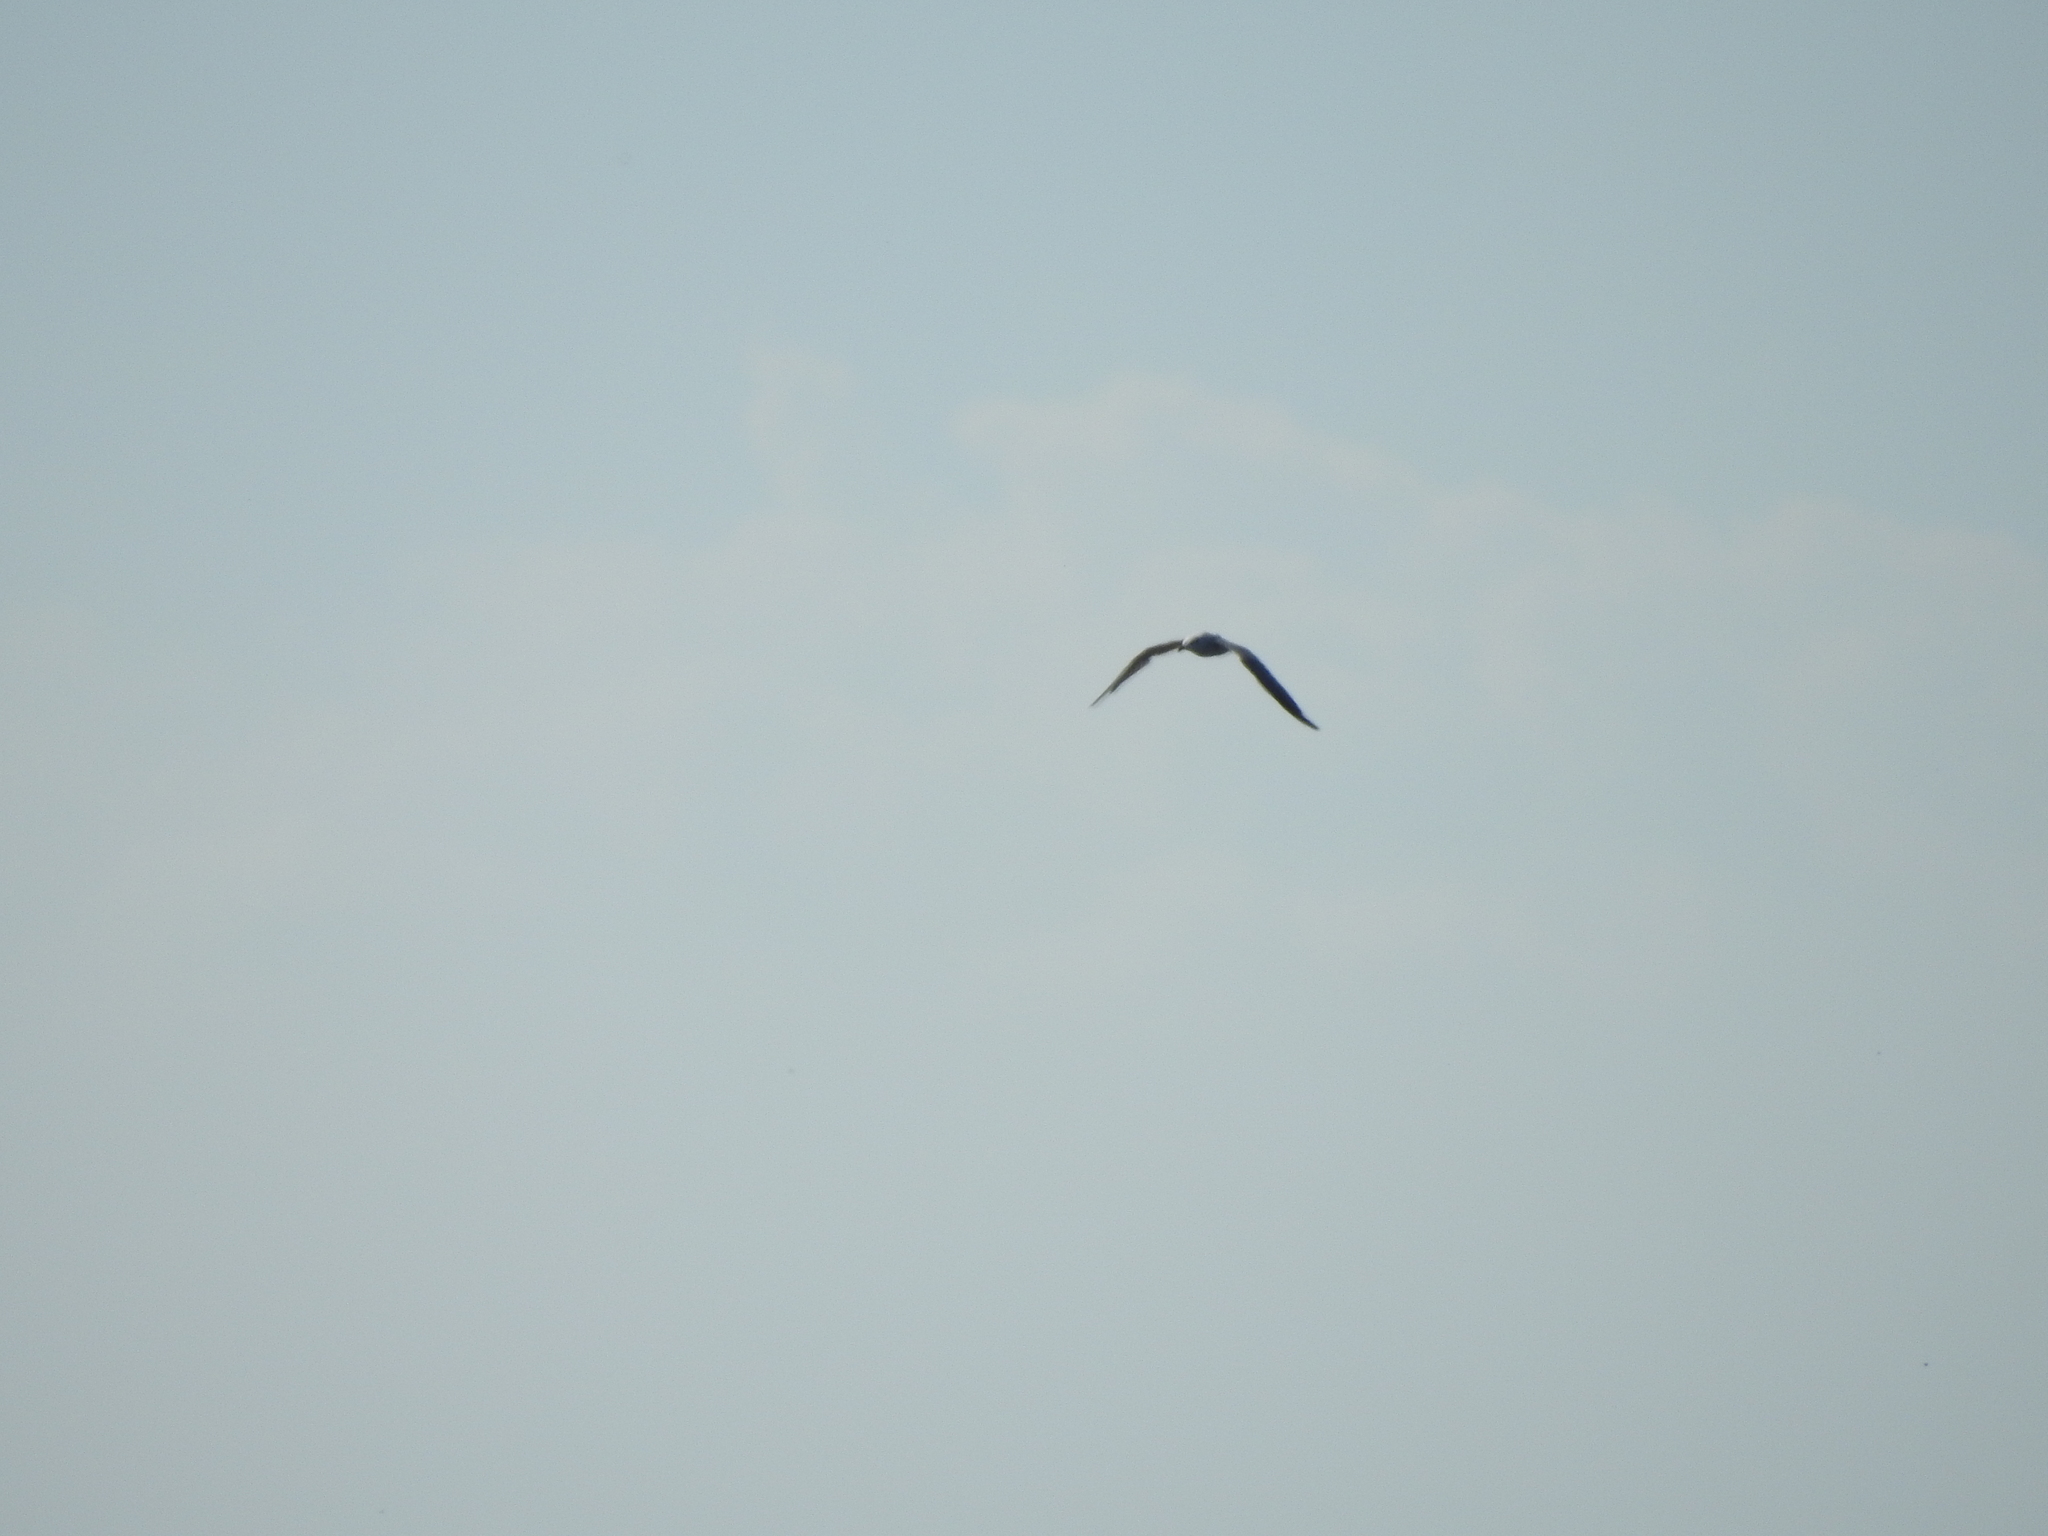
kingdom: Animalia
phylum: Chordata
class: Aves
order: Charadriiformes
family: Laridae
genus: Leucophaeus
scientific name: Leucophaeus atricilla
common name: Laughing gull
